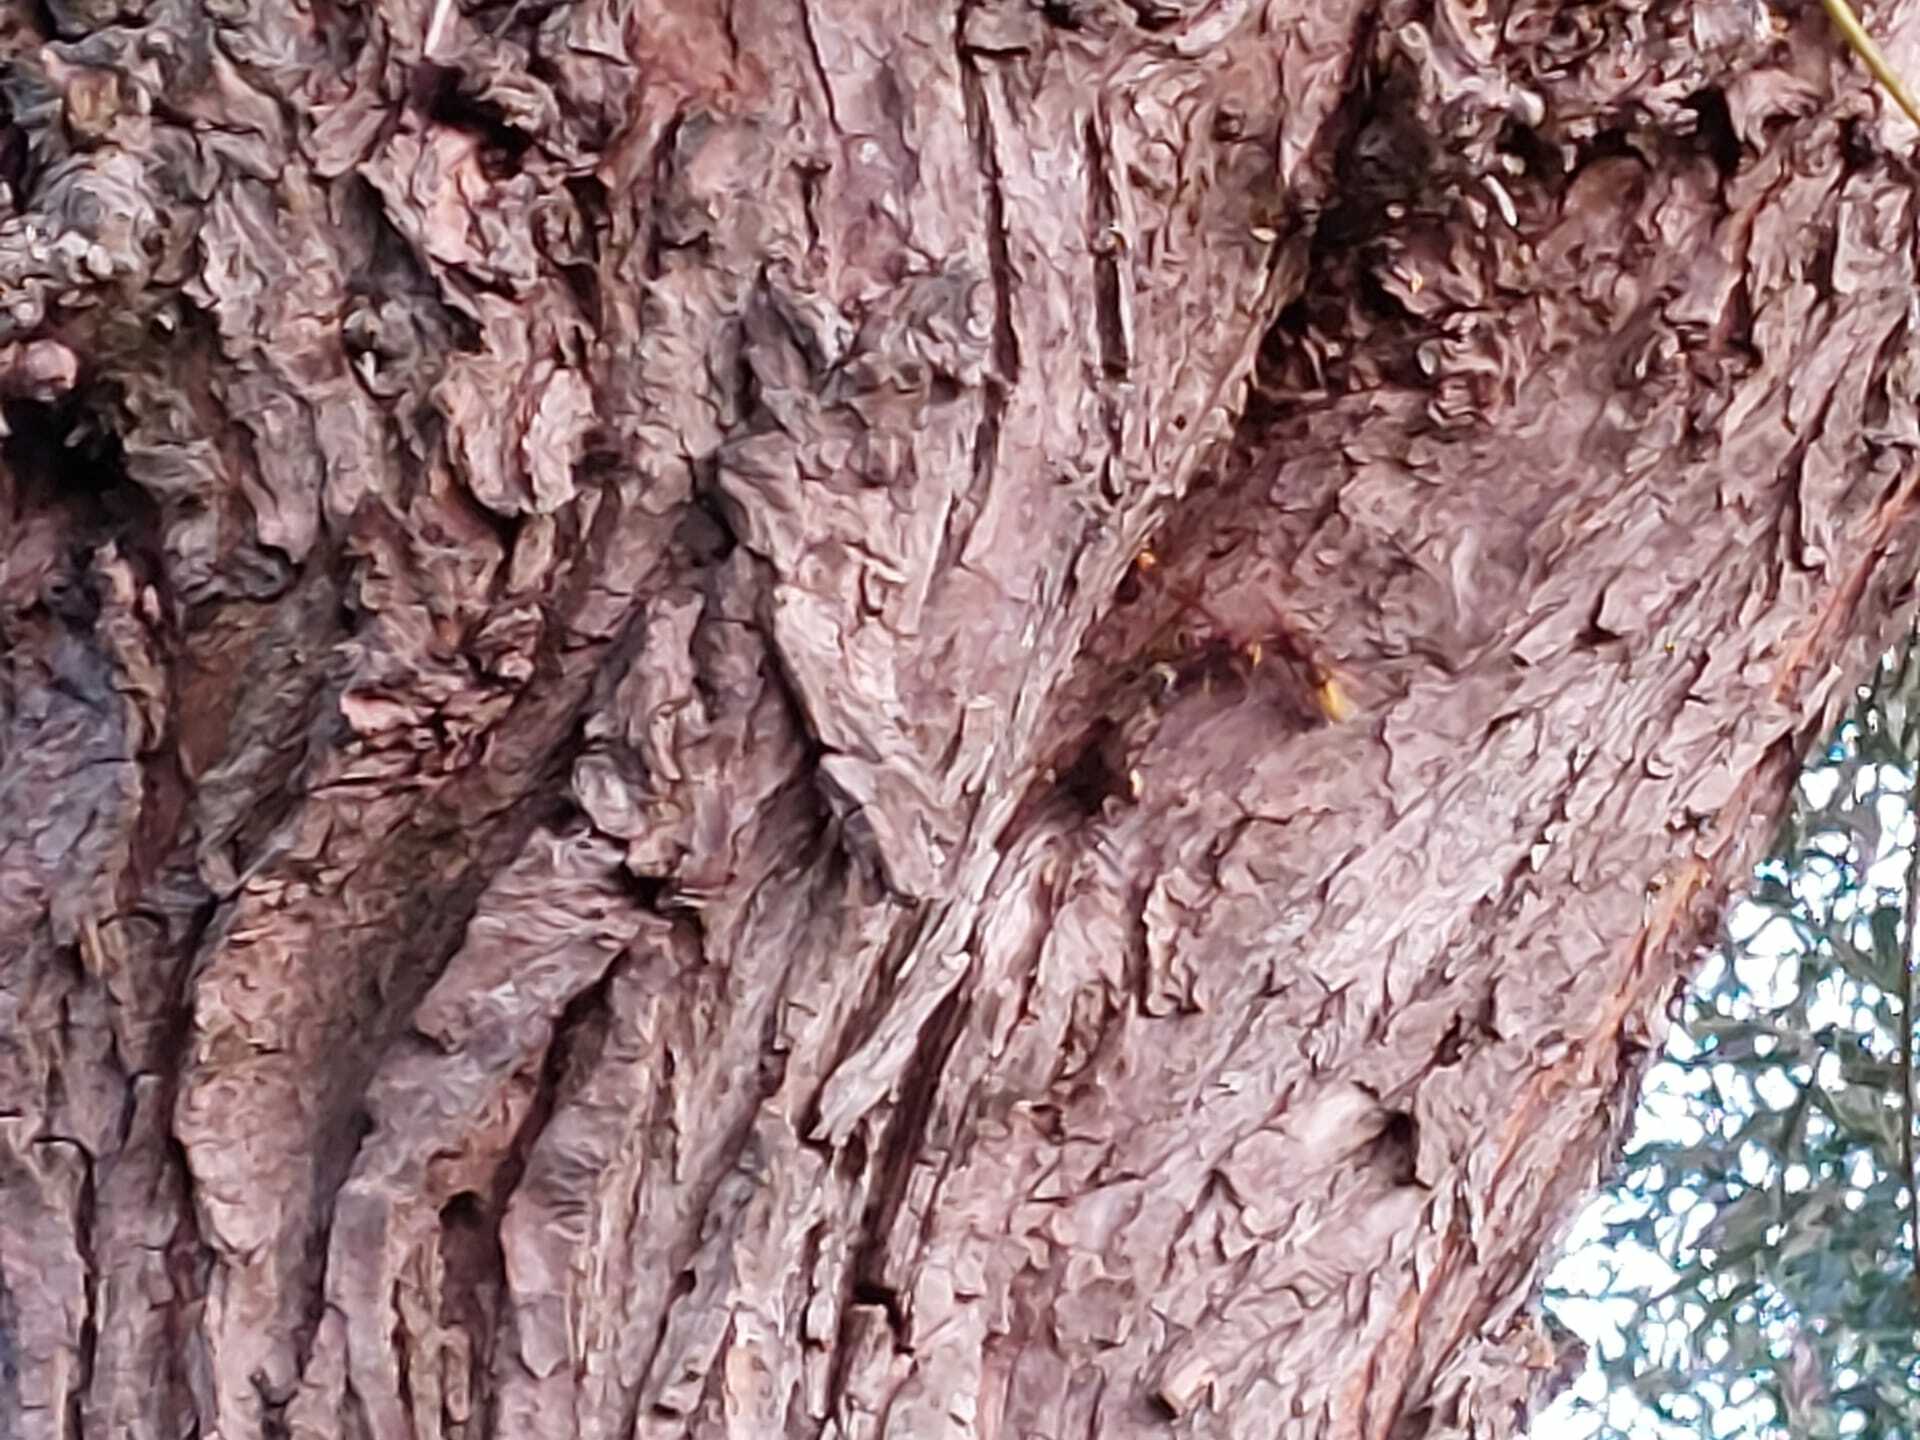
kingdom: Animalia
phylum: Arthropoda
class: Insecta
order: Hymenoptera
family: Vespidae
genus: Vespa
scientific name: Vespa crabro
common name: Hornet
